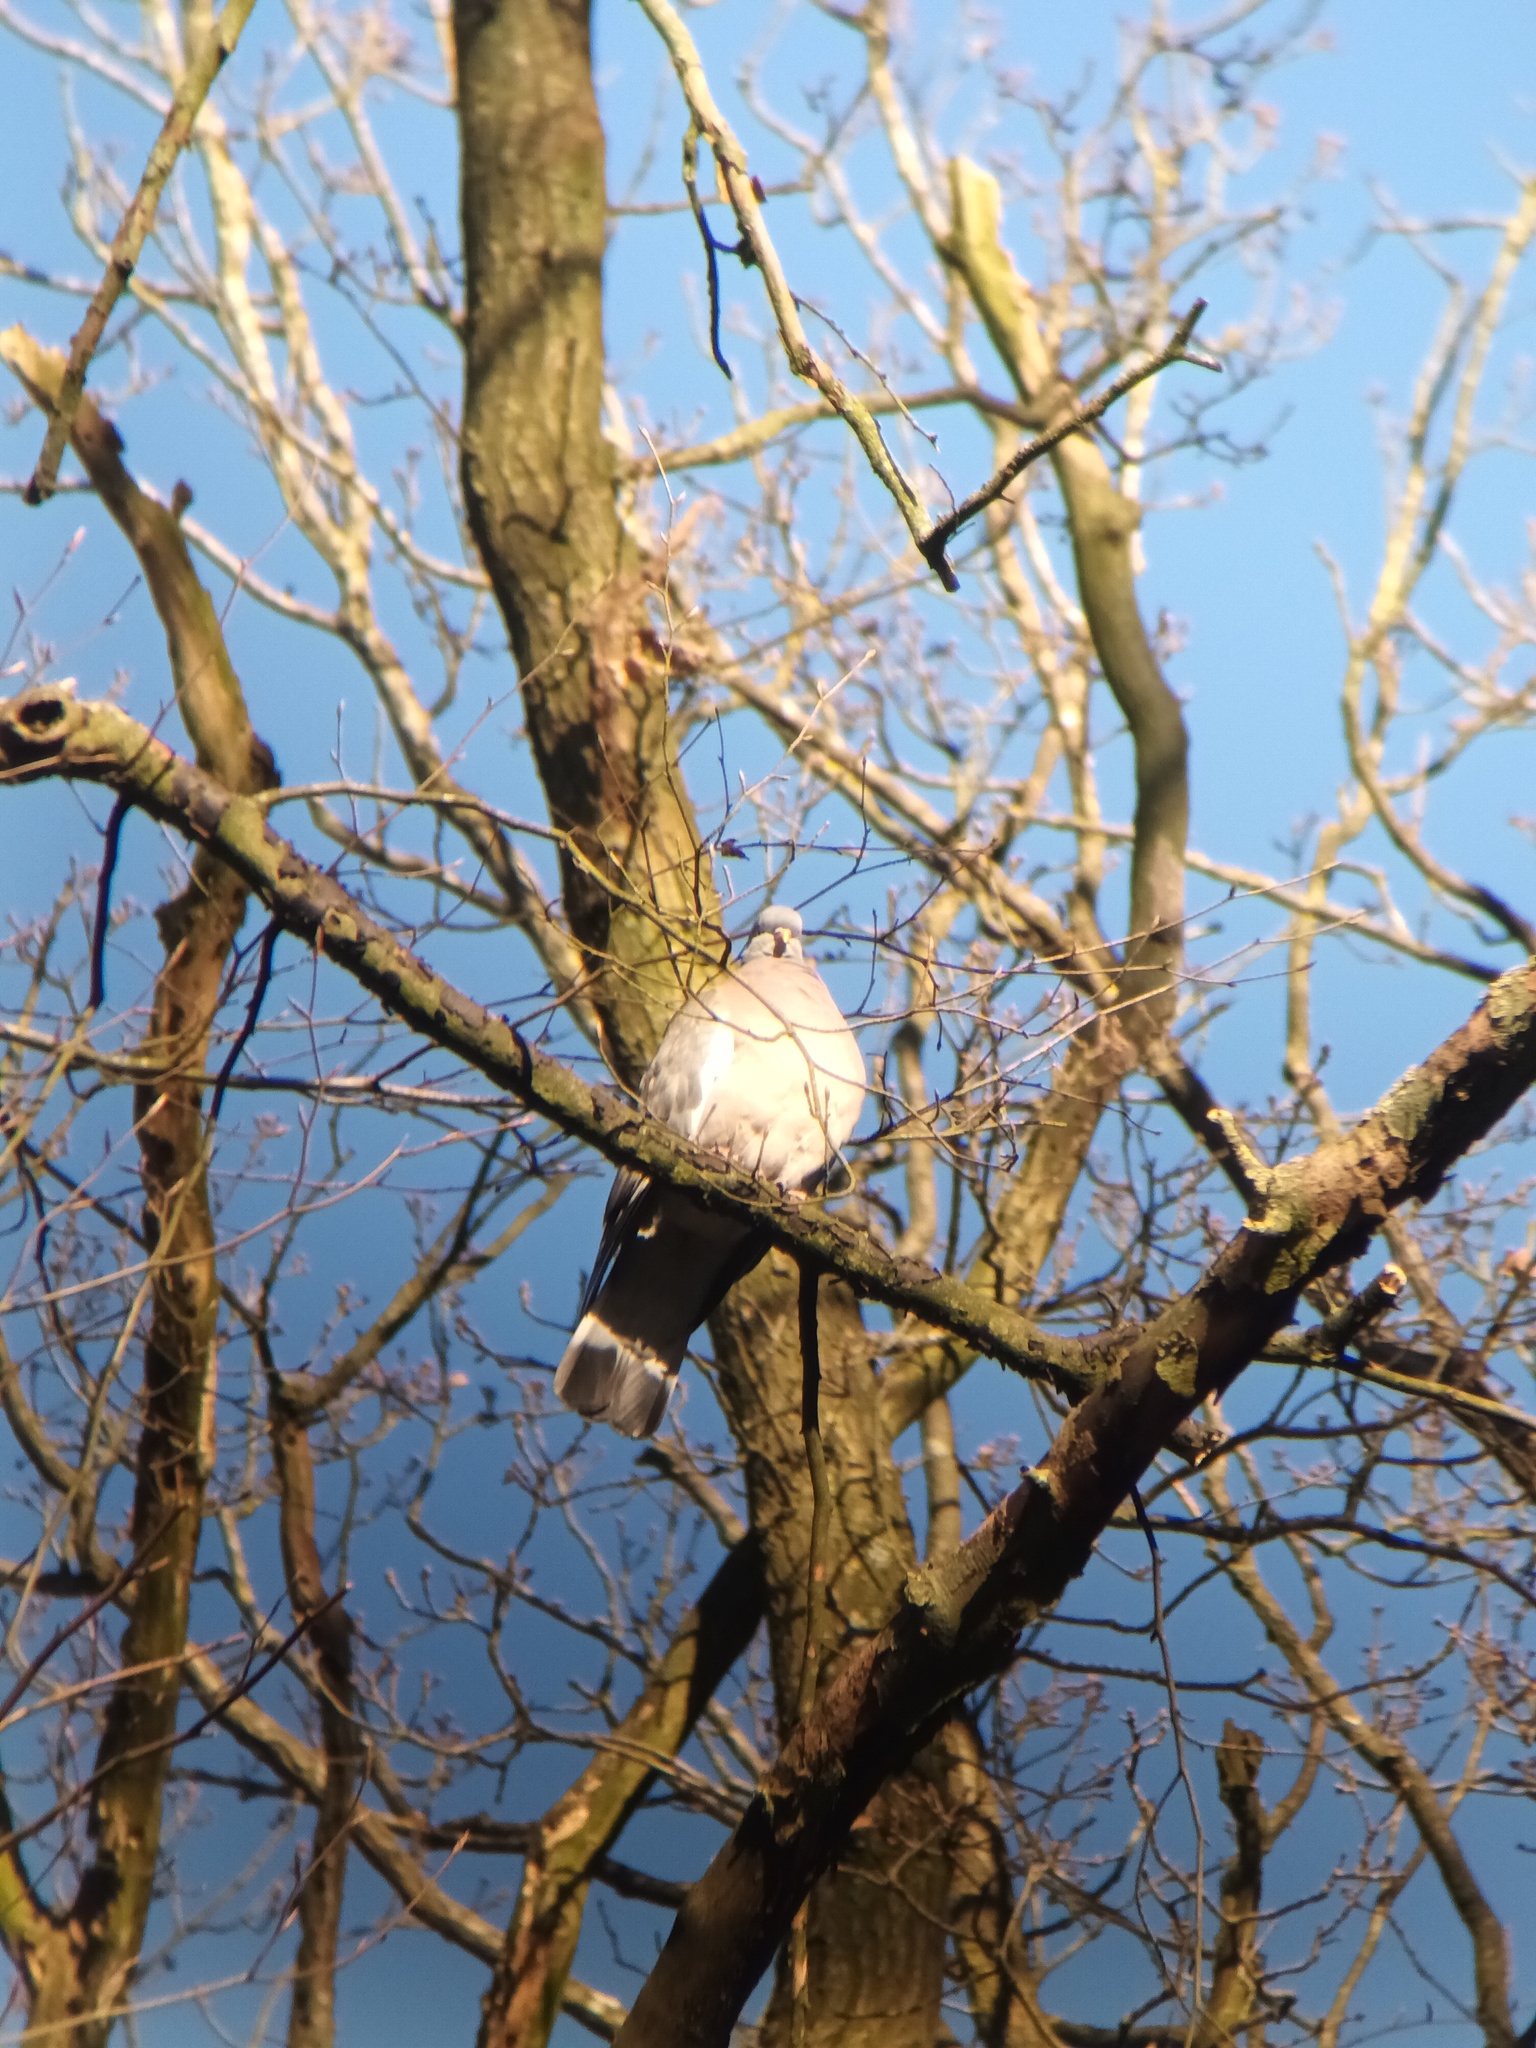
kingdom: Animalia
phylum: Chordata
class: Aves
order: Columbiformes
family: Columbidae
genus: Columba
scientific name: Columba palumbus
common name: Common wood pigeon
